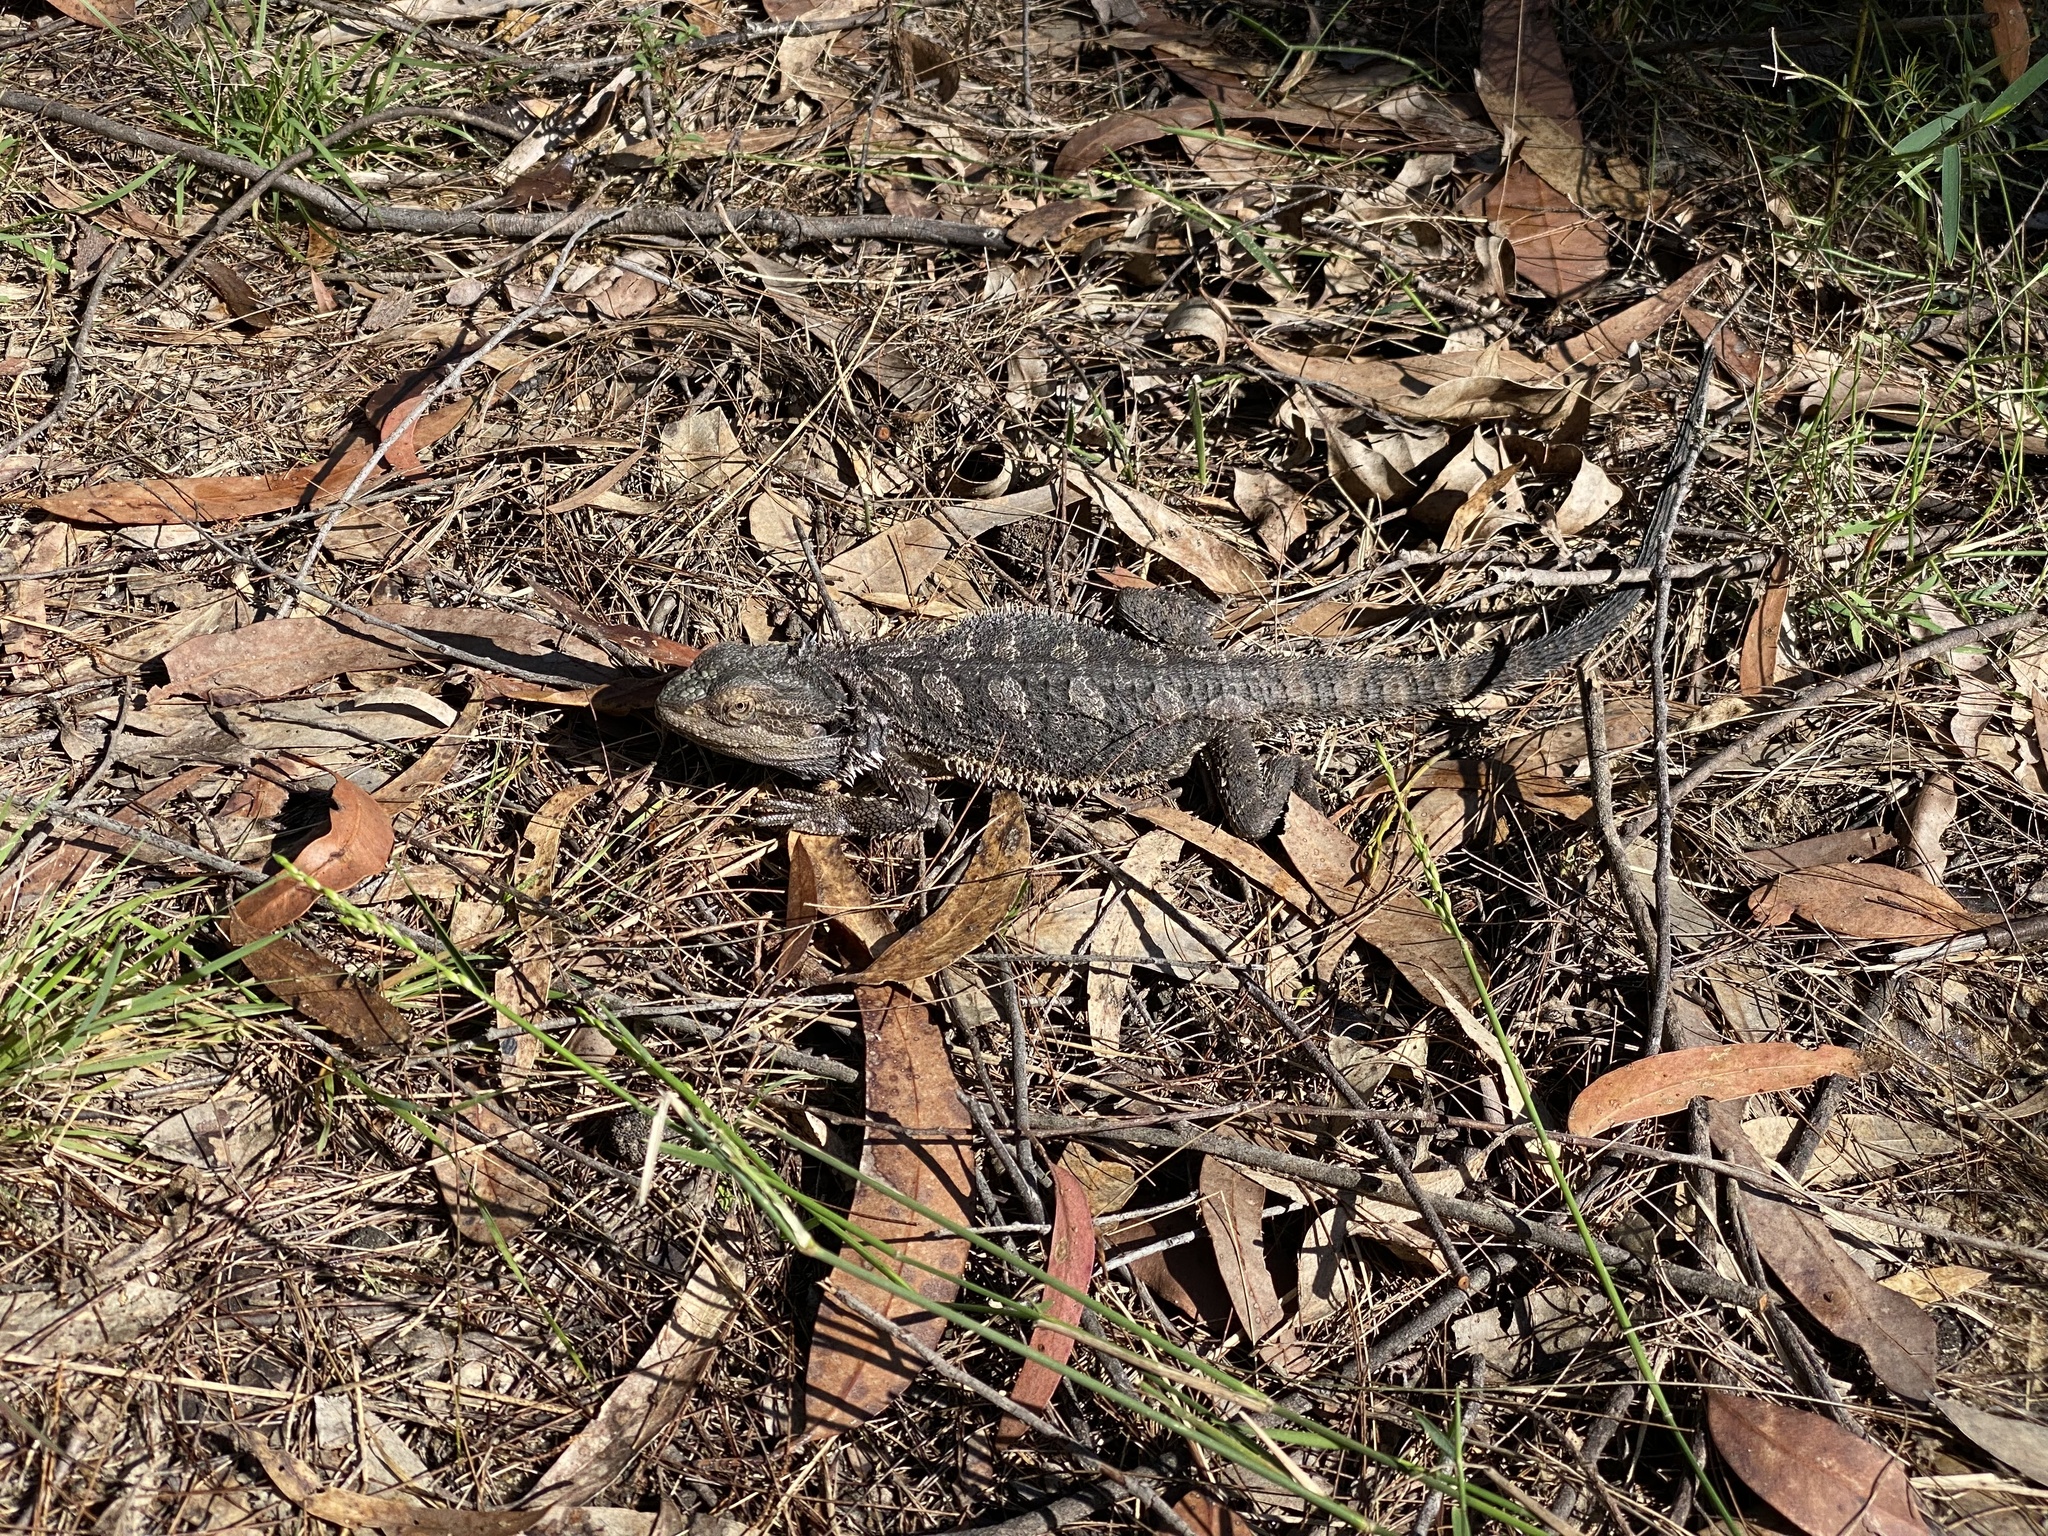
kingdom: Animalia
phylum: Chordata
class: Squamata
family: Agamidae
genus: Pogona
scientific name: Pogona barbata
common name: Bearded dragon
